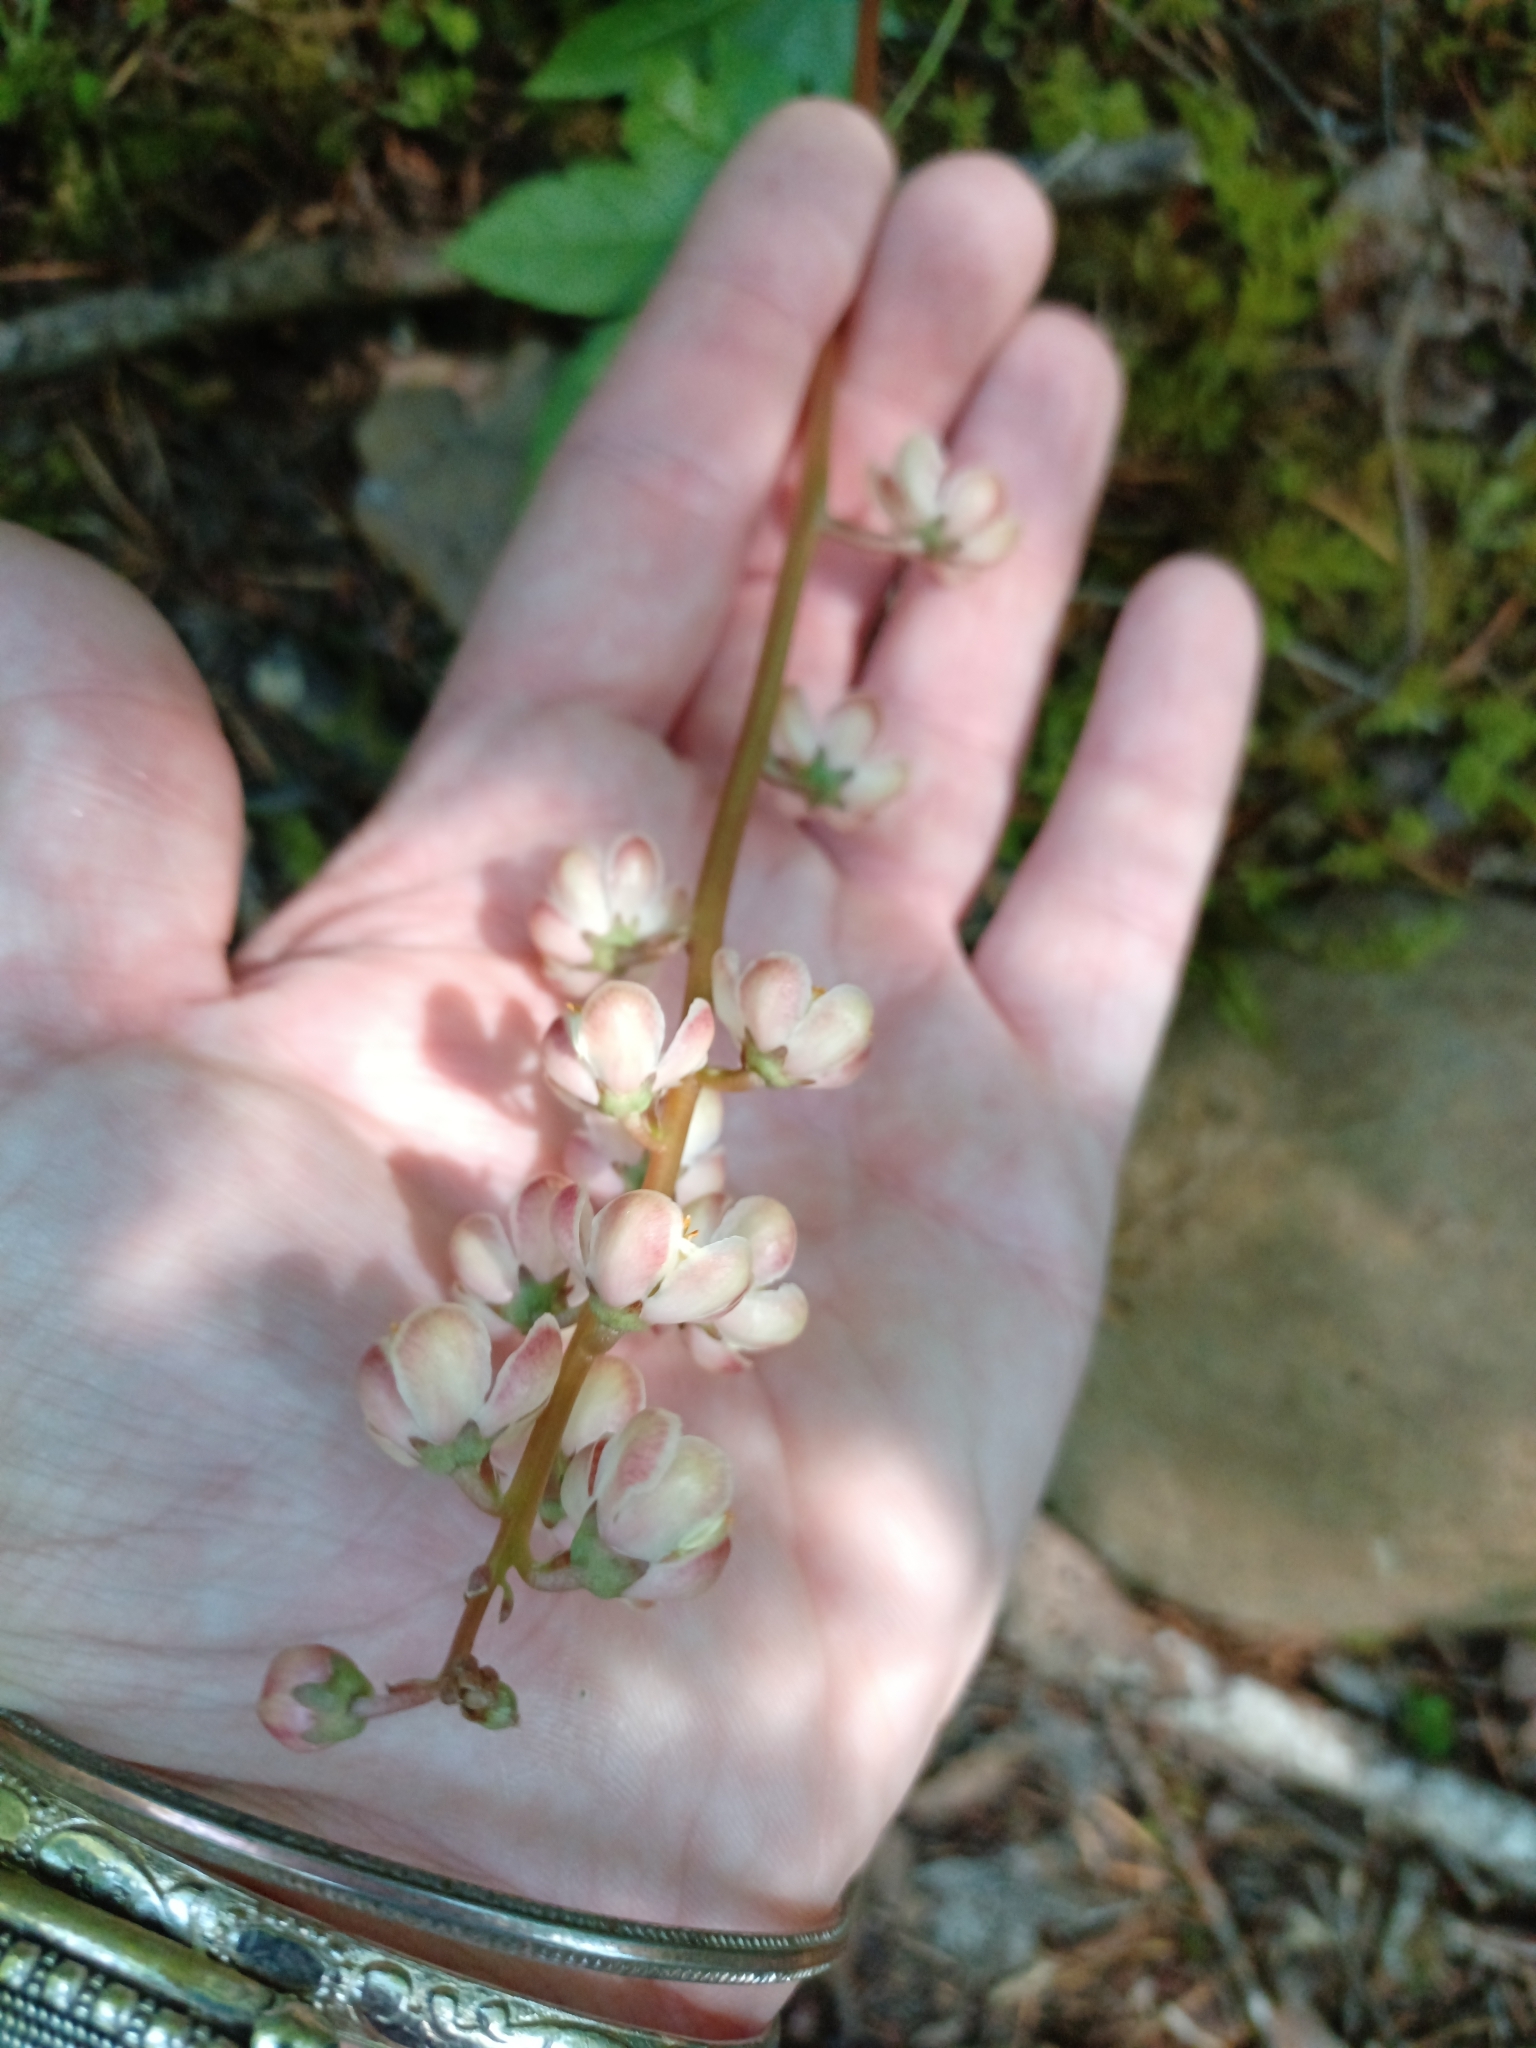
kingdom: Plantae
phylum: Tracheophyta
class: Magnoliopsida
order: Ericales
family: Ericaceae
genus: Pyrola
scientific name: Pyrola asarifolia
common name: Bog wintergreen
